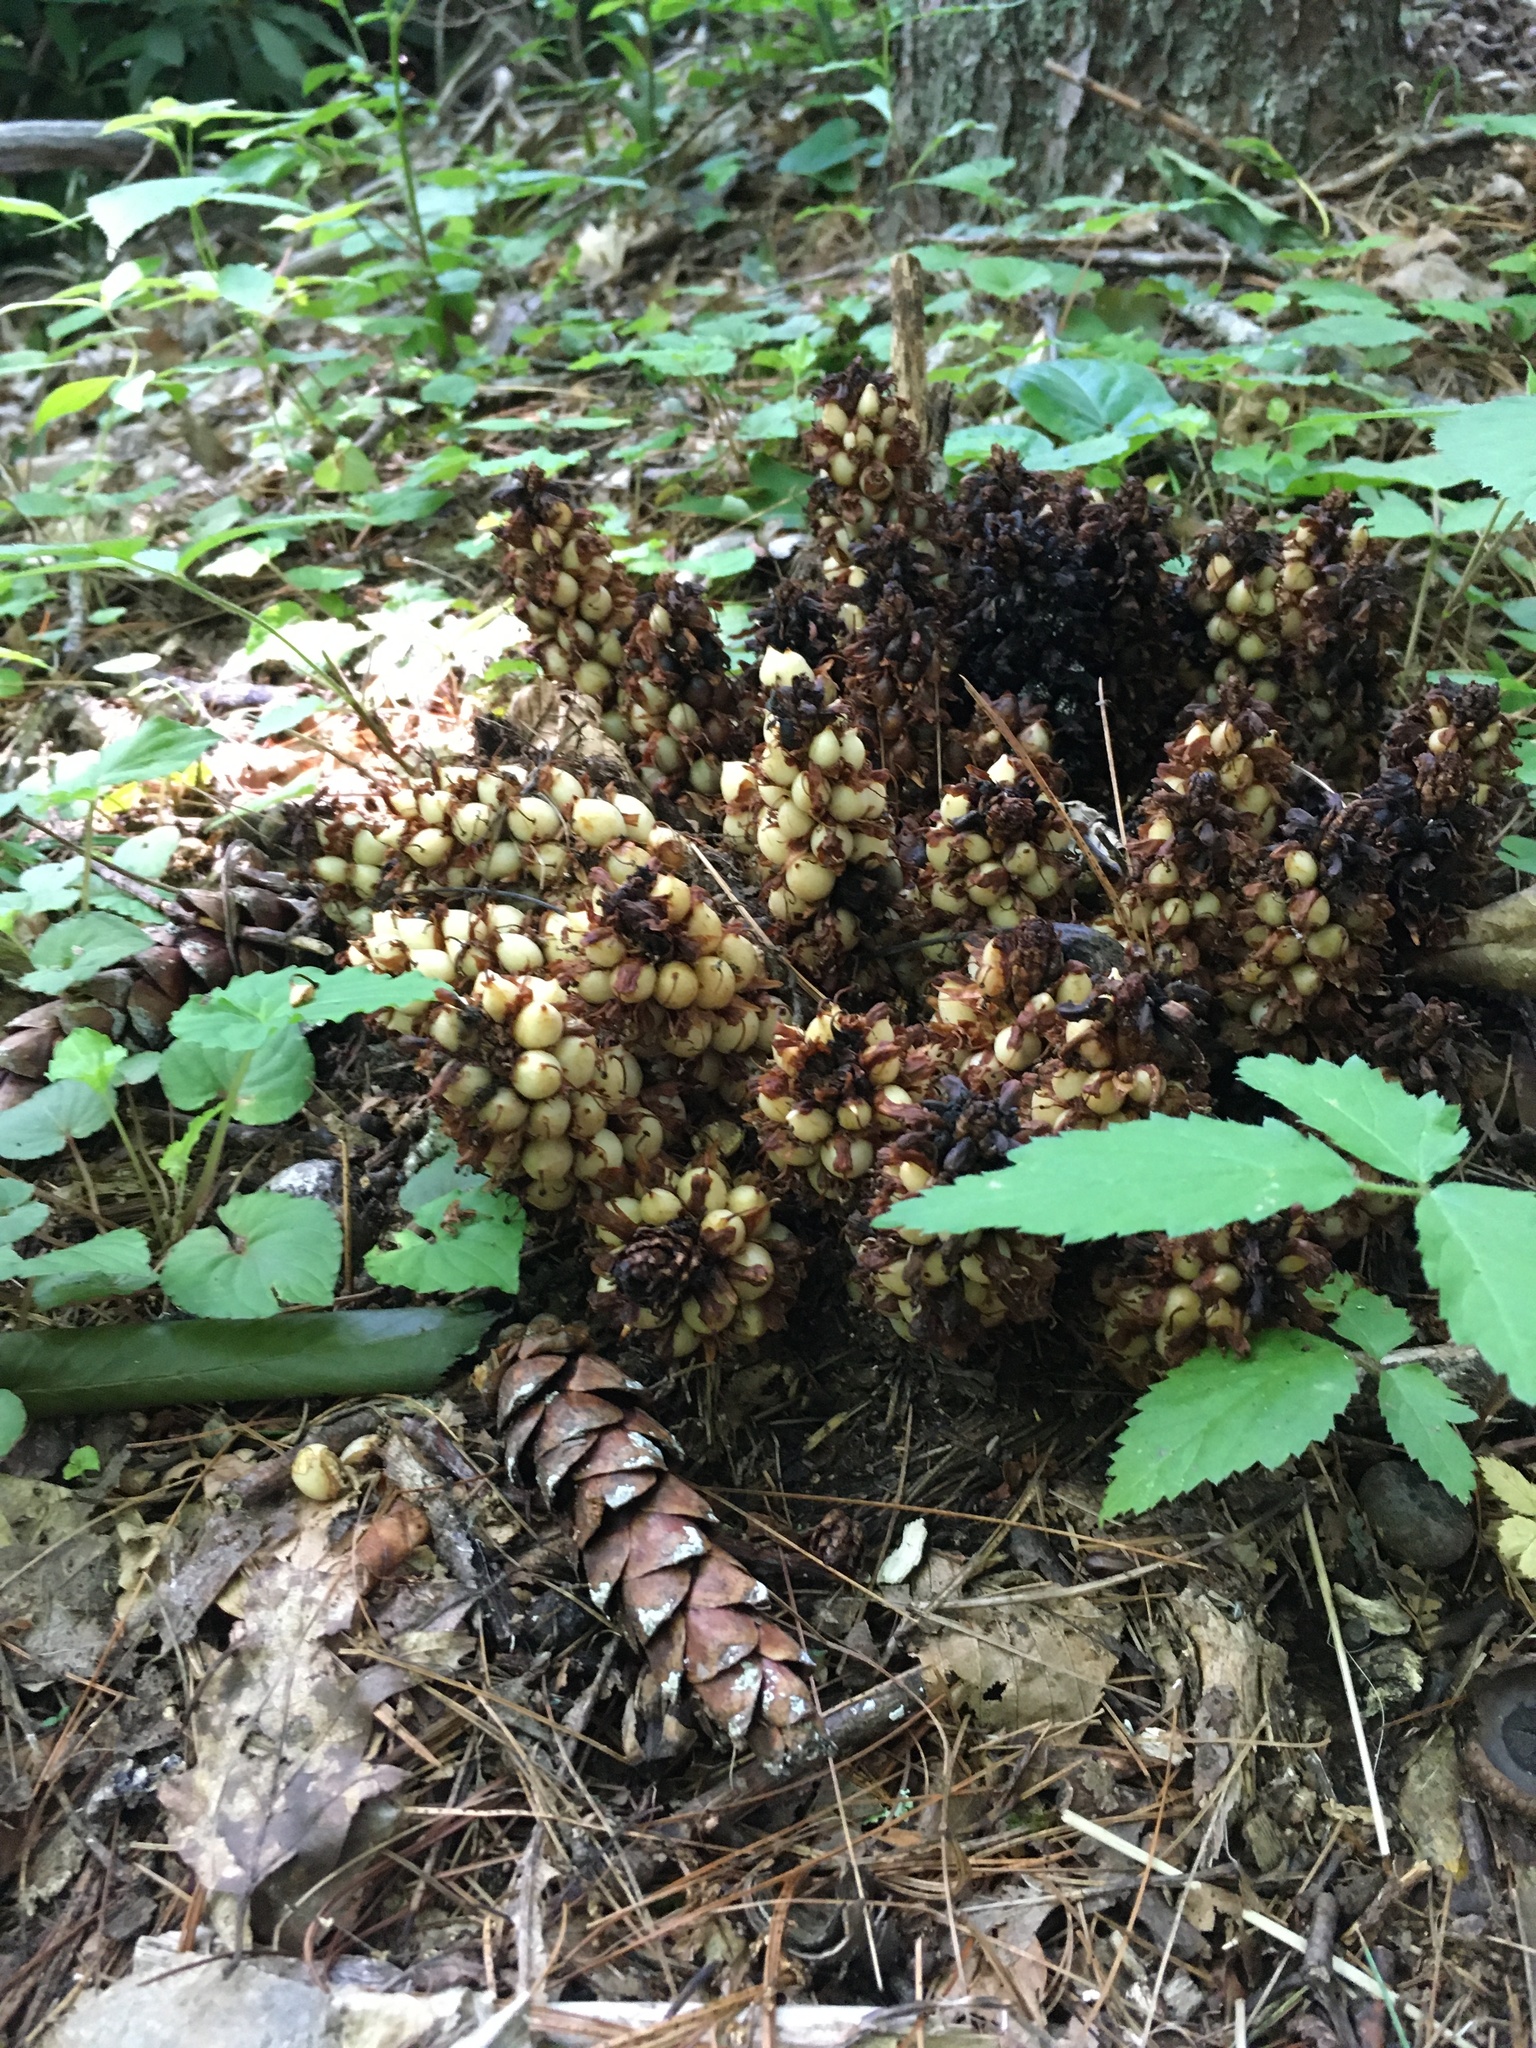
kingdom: Plantae
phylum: Tracheophyta
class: Magnoliopsida
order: Lamiales
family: Orobanchaceae
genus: Conopholis
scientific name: Conopholis americana
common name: American cancer-root
